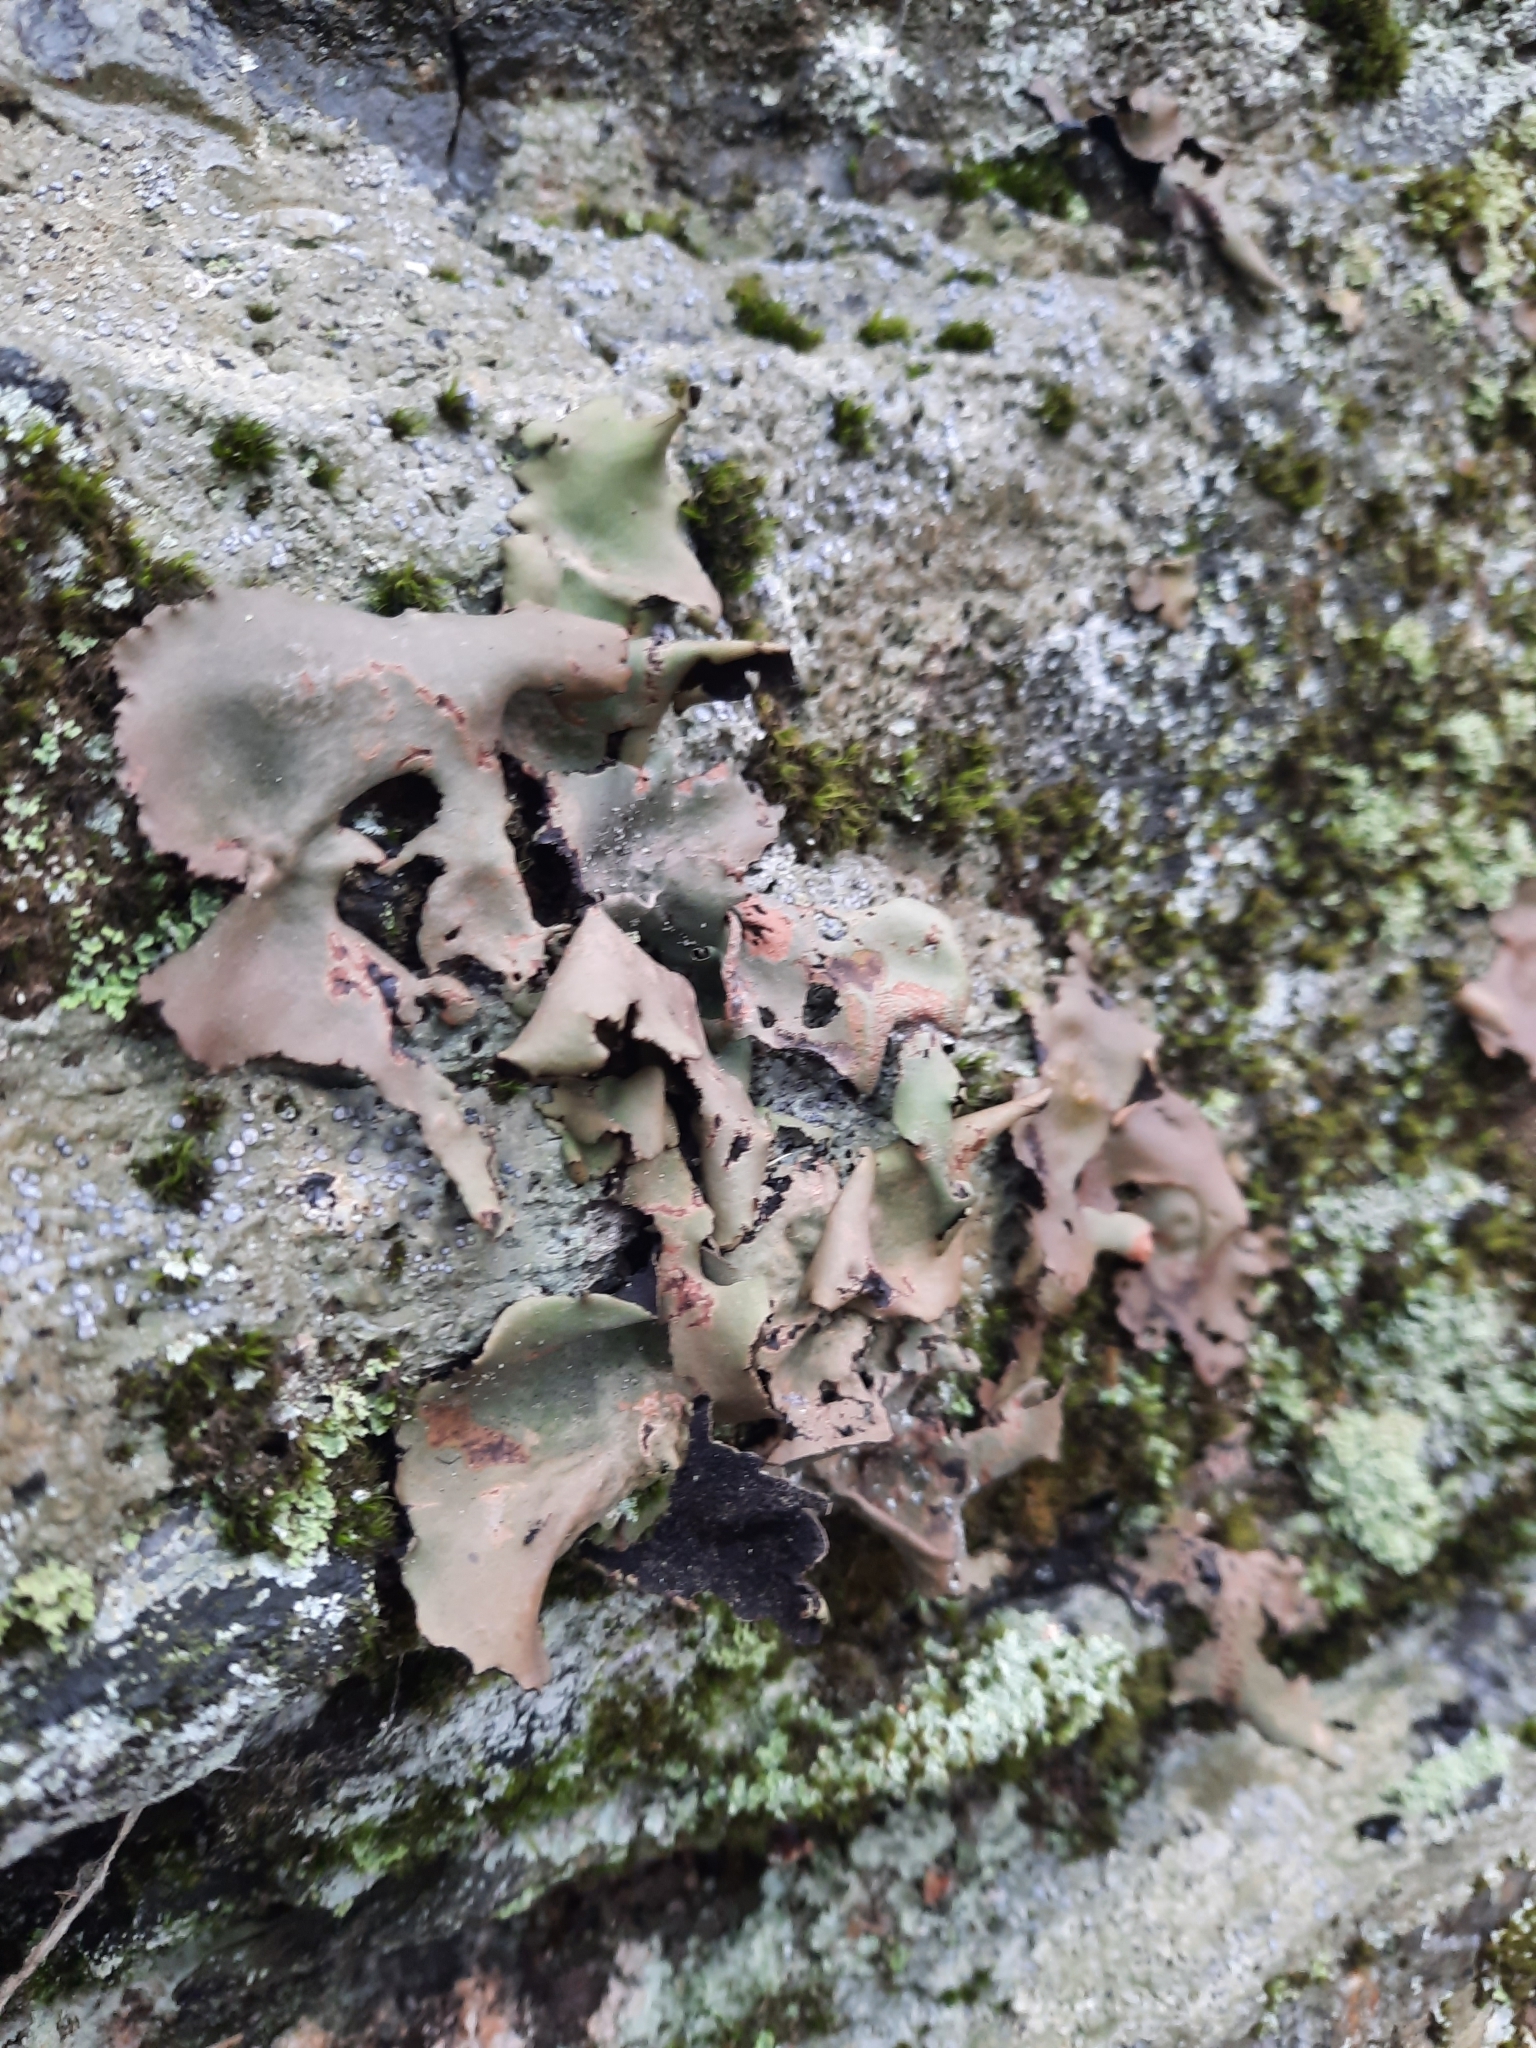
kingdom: Fungi
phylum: Ascomycota
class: Lecanoromycetes
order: Umbilicariales
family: Umbilicariaceae
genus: Umbilicaria
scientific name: Umbilicaria mammulata
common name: Smooth rock tripe
